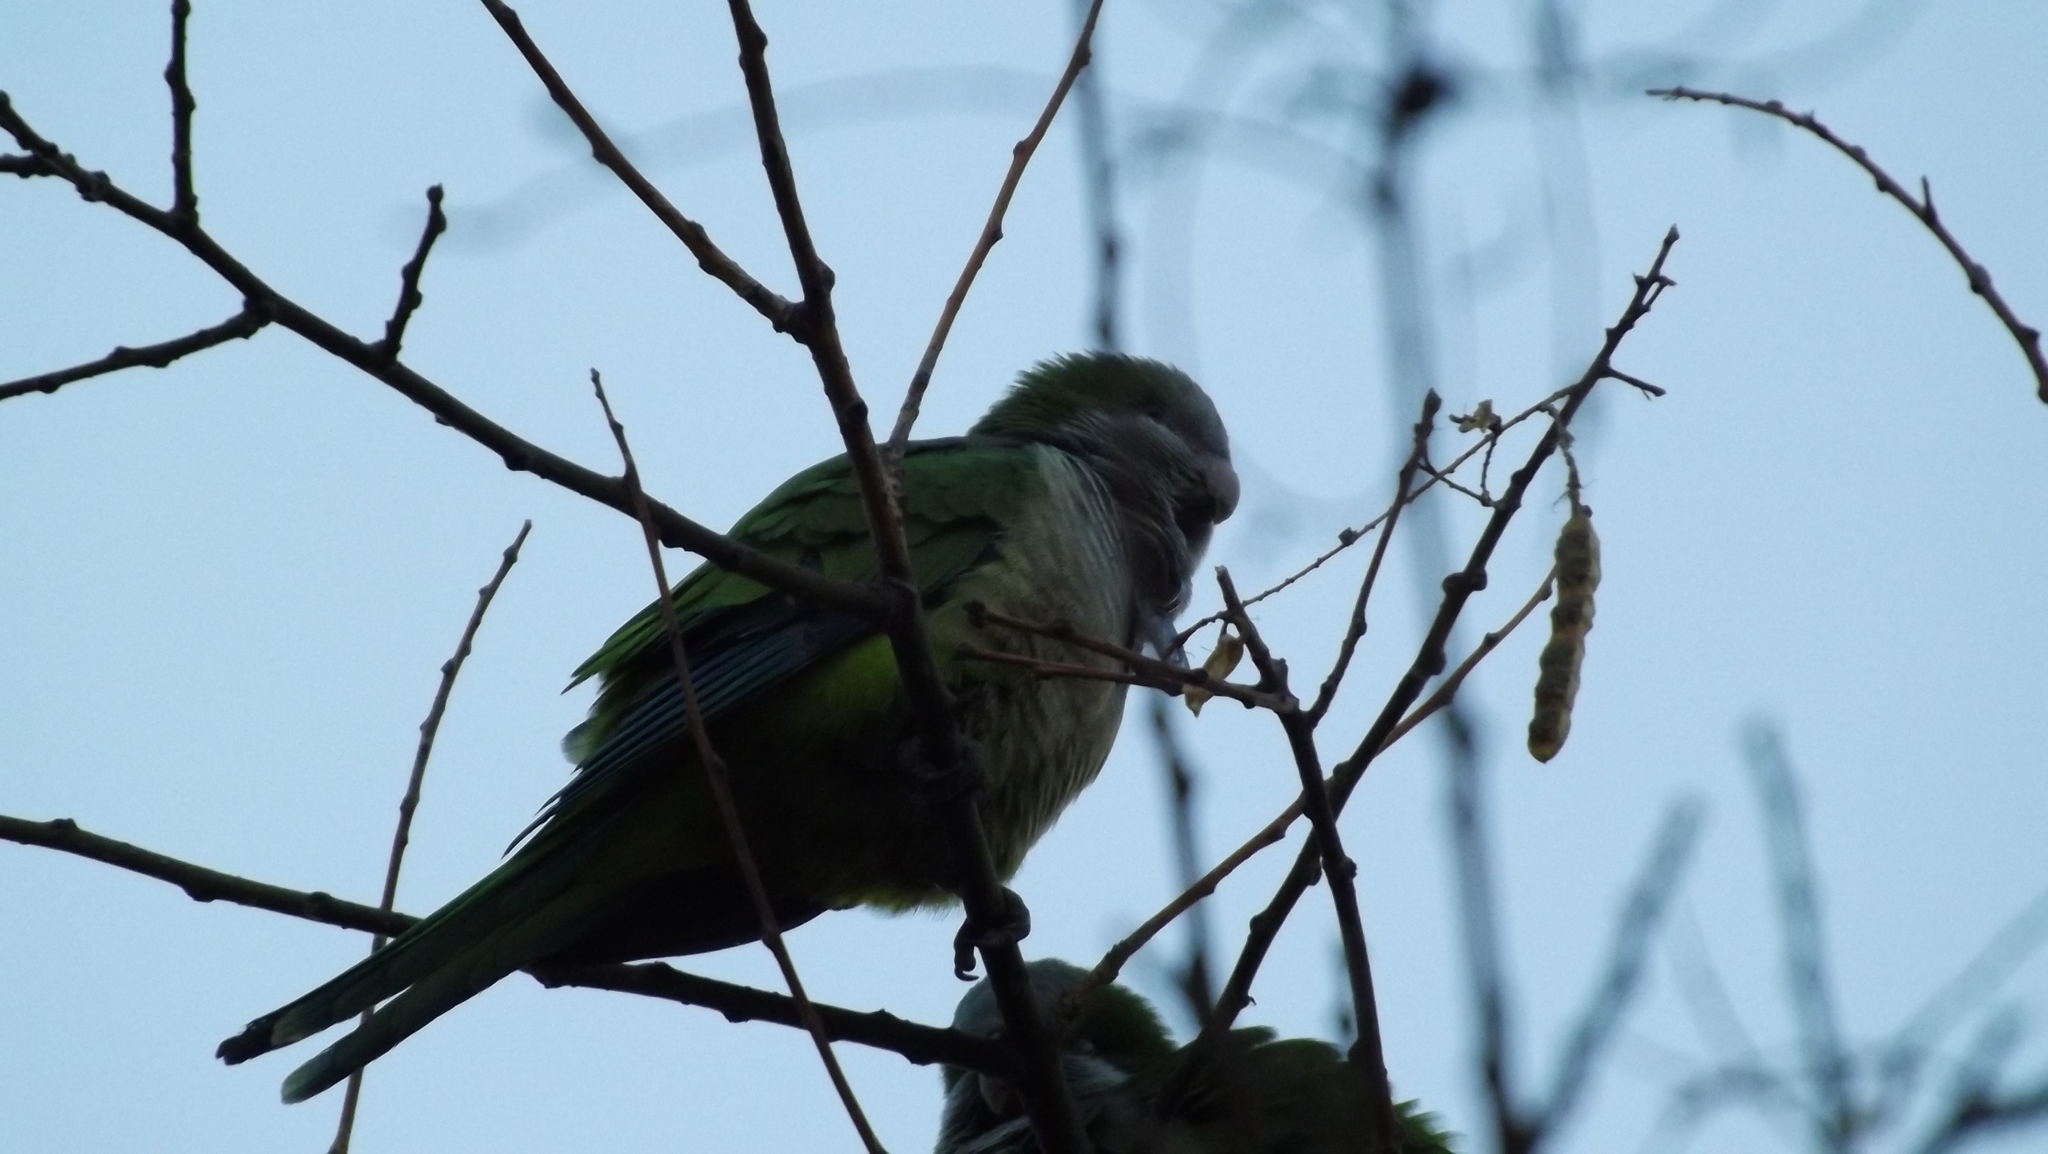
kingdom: Animalia
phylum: Chordata
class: Aves
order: Psittaciformes
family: Psittacidae
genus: Myiopsitta
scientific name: Myiopsitta monachus
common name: Monk parakeet
